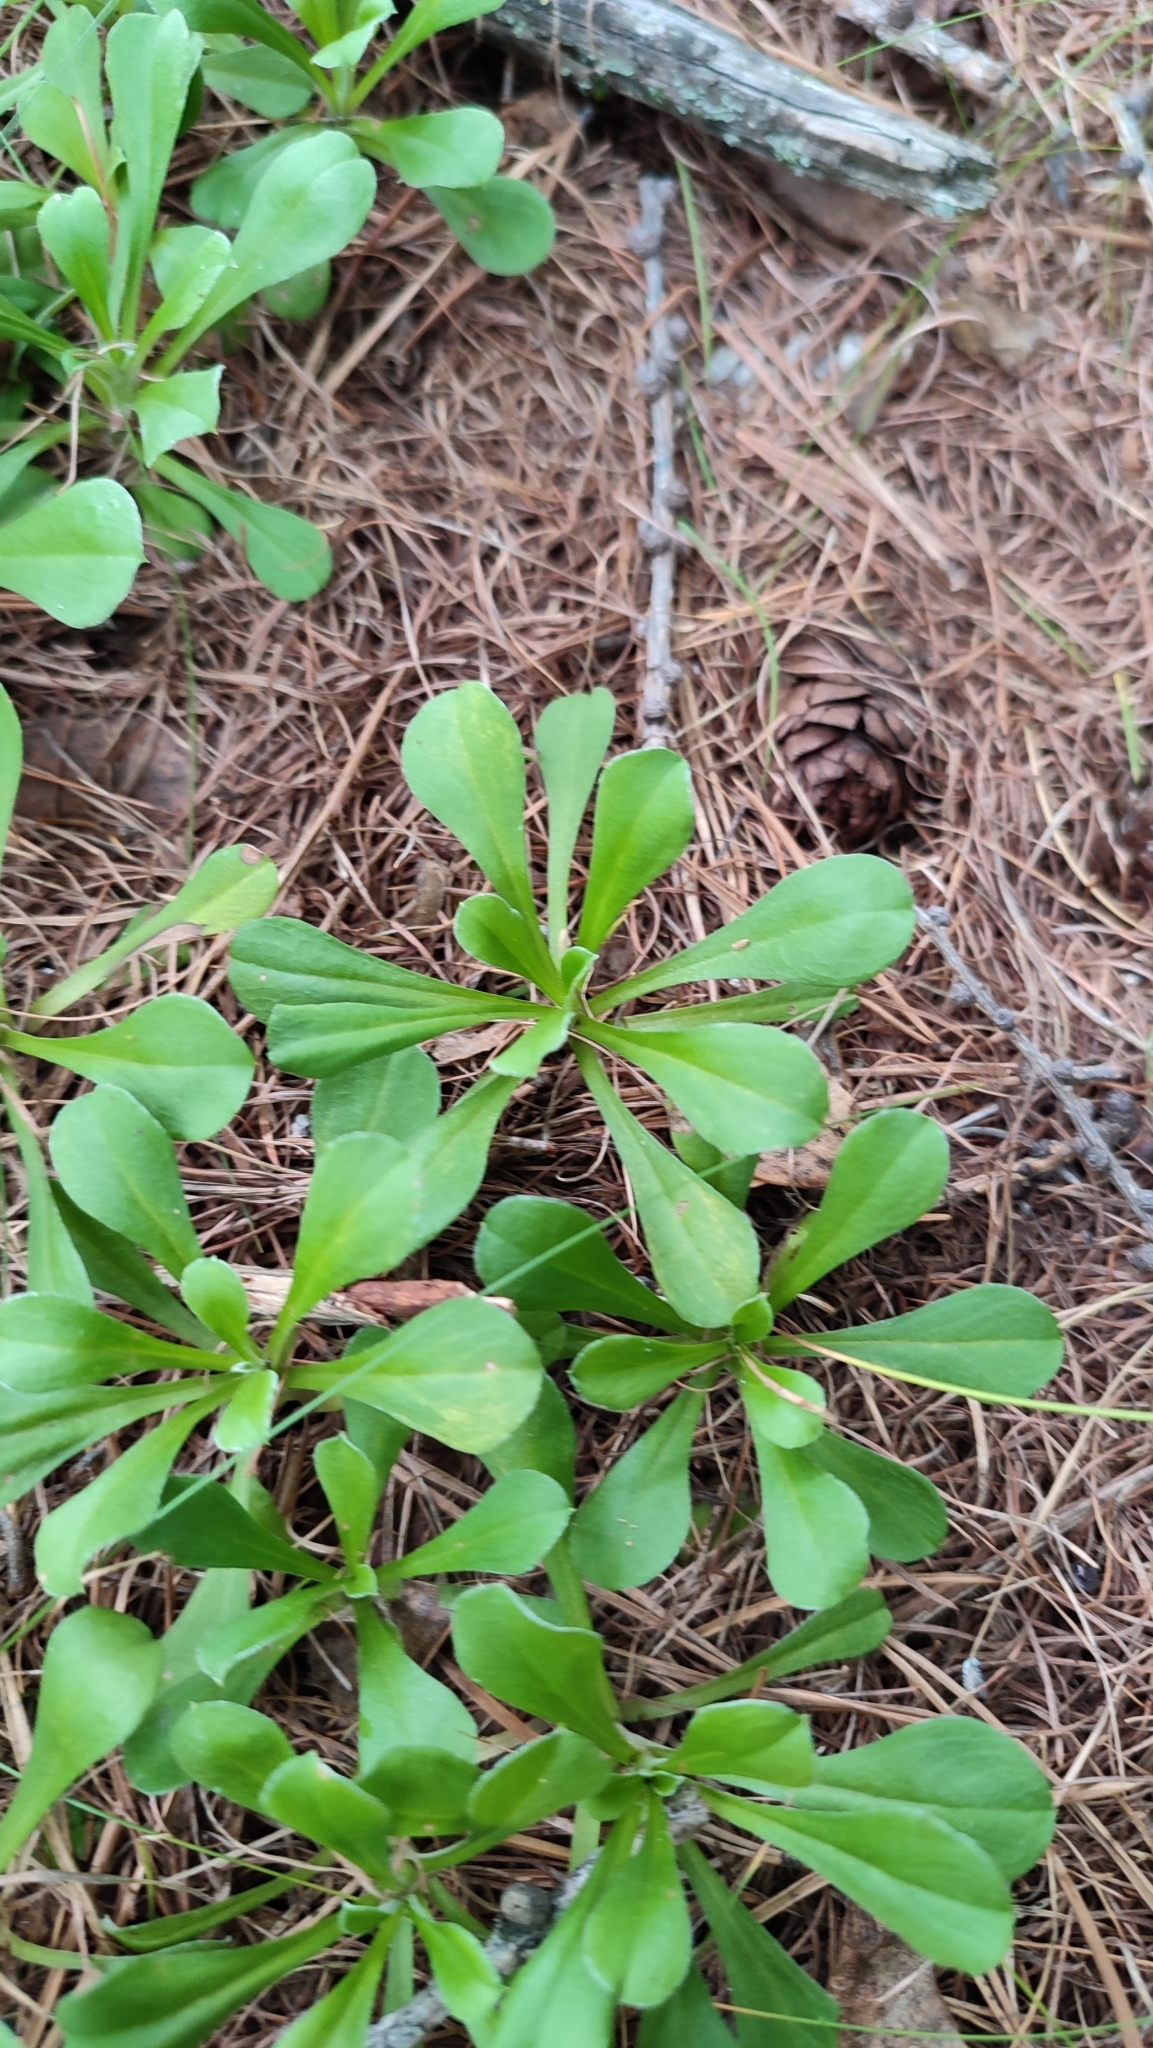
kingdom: Plantae
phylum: Tracheophyta
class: Magnoliopsida
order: Asterales
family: Asteraceae
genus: Antennaria
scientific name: Antennaria dioica
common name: Mountain everlasting
